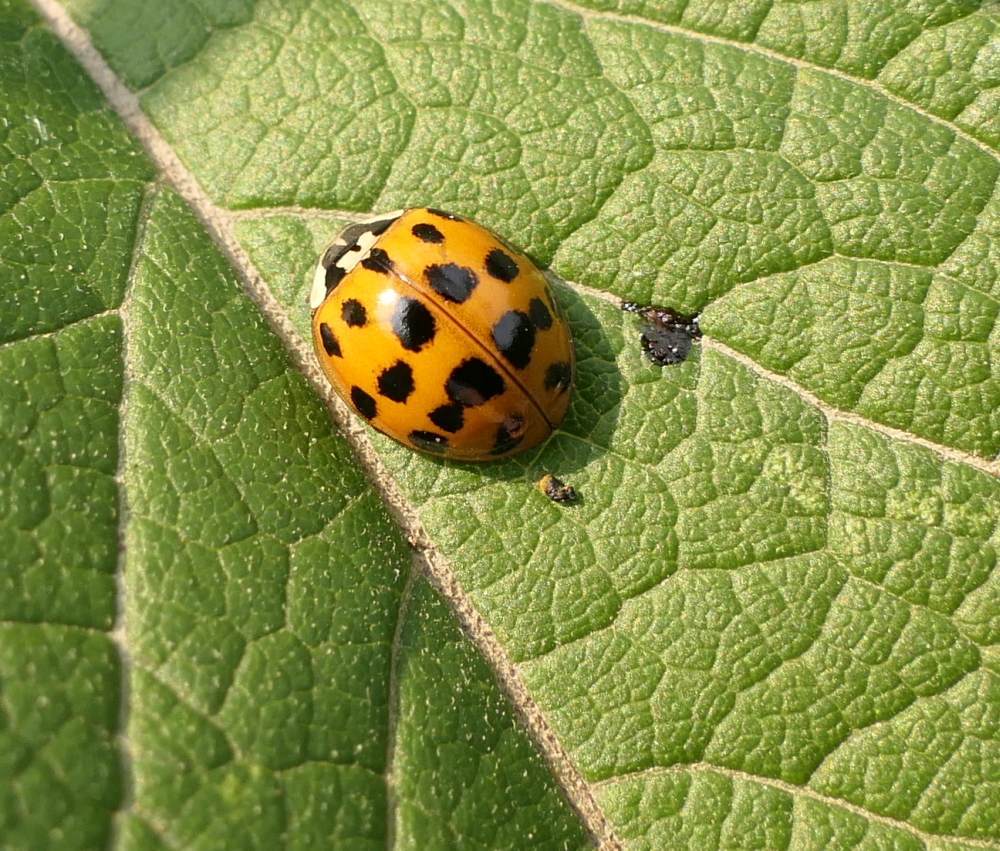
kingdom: Animalia
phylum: Arthropoda
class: Insecta
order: Coleoptera
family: Coccinellidae
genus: Harmonia
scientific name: Harmonia axyridis
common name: Harlequin ladybird
